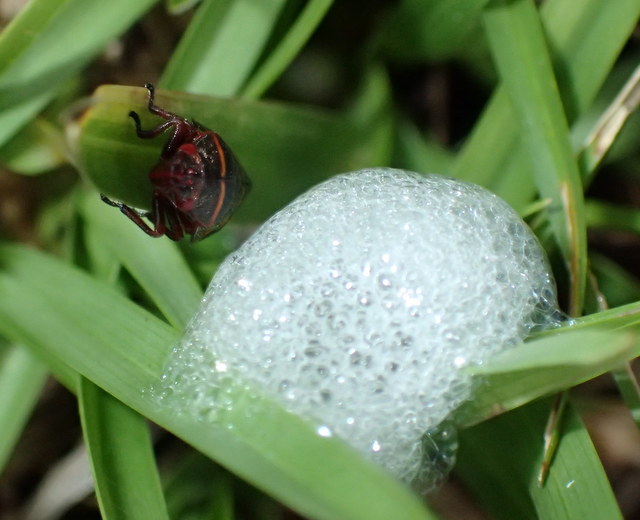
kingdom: Animalia
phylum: Arthropoda
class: Insecta
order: Hemiptera
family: Cercopidae
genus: Prosapia
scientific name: Prosapia bicincta
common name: Twolined spittlebug
